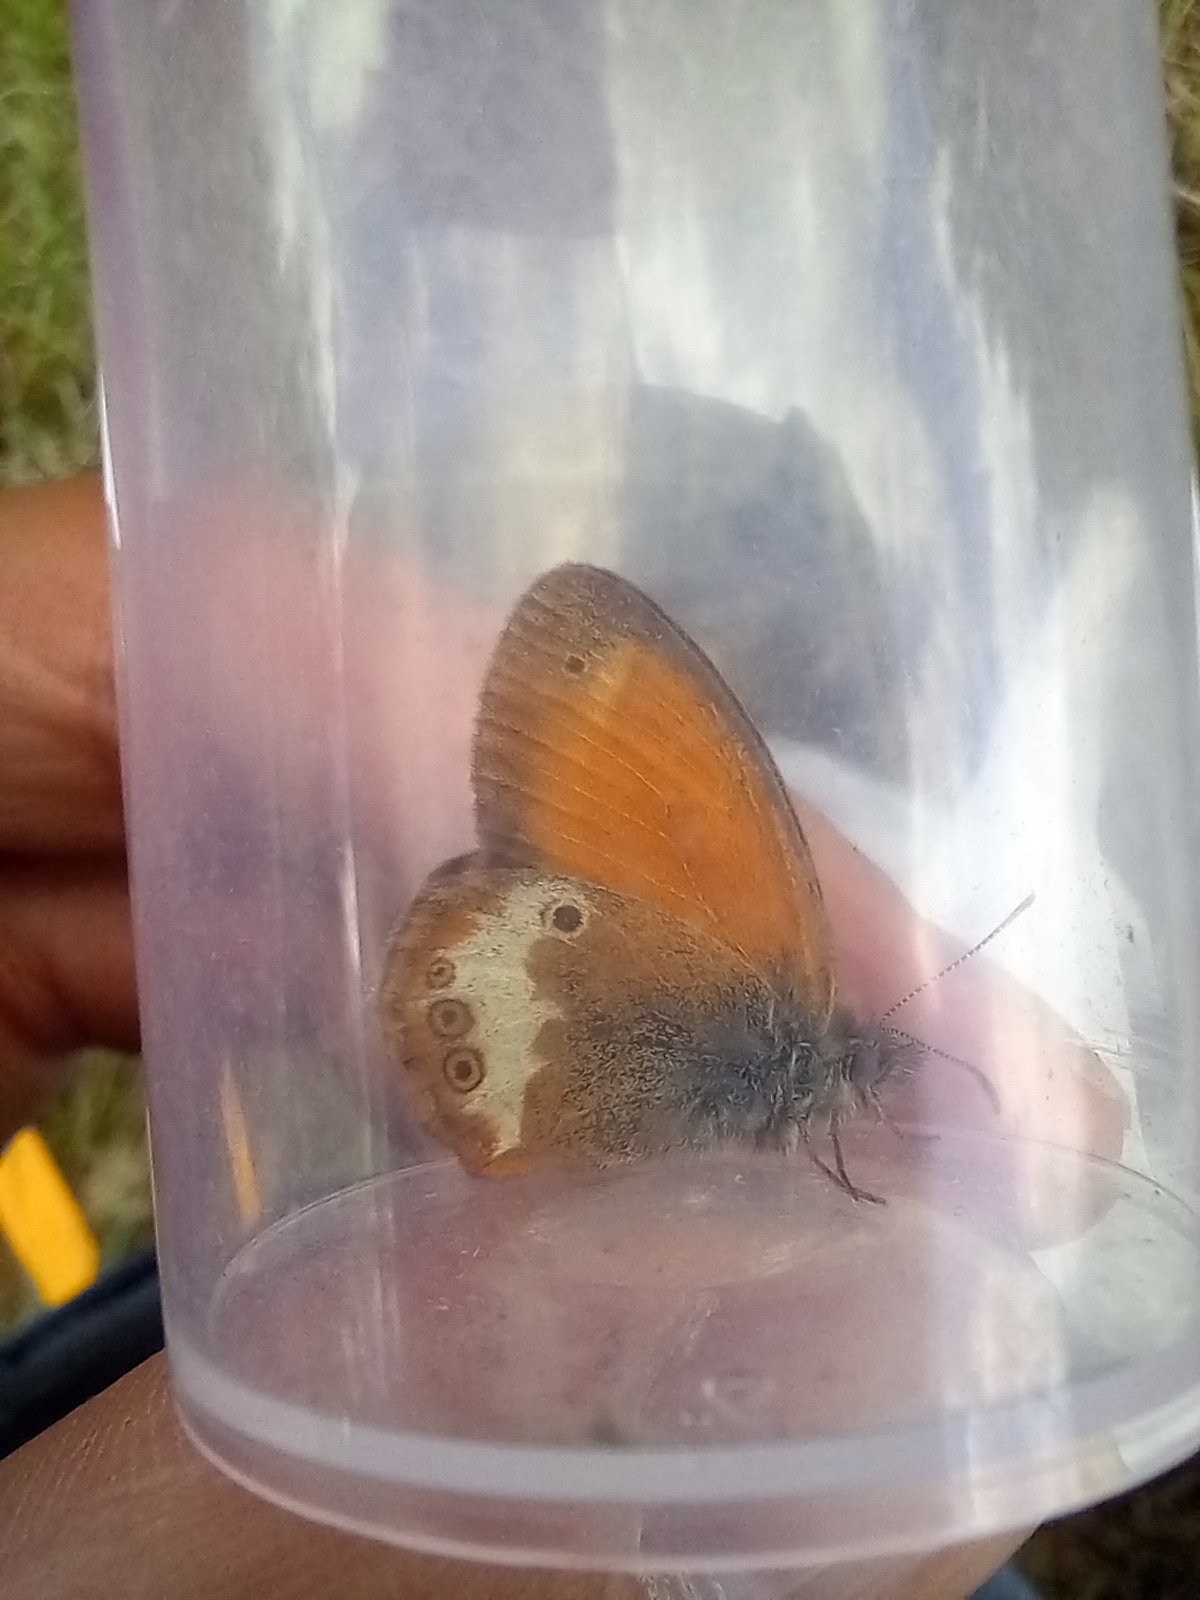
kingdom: Animalia
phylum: Arthropoda
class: Insecta
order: Lepidoptera
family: Nymphalidae
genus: Coenonympha
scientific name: Coenonympha arcania
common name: Pearly heath
